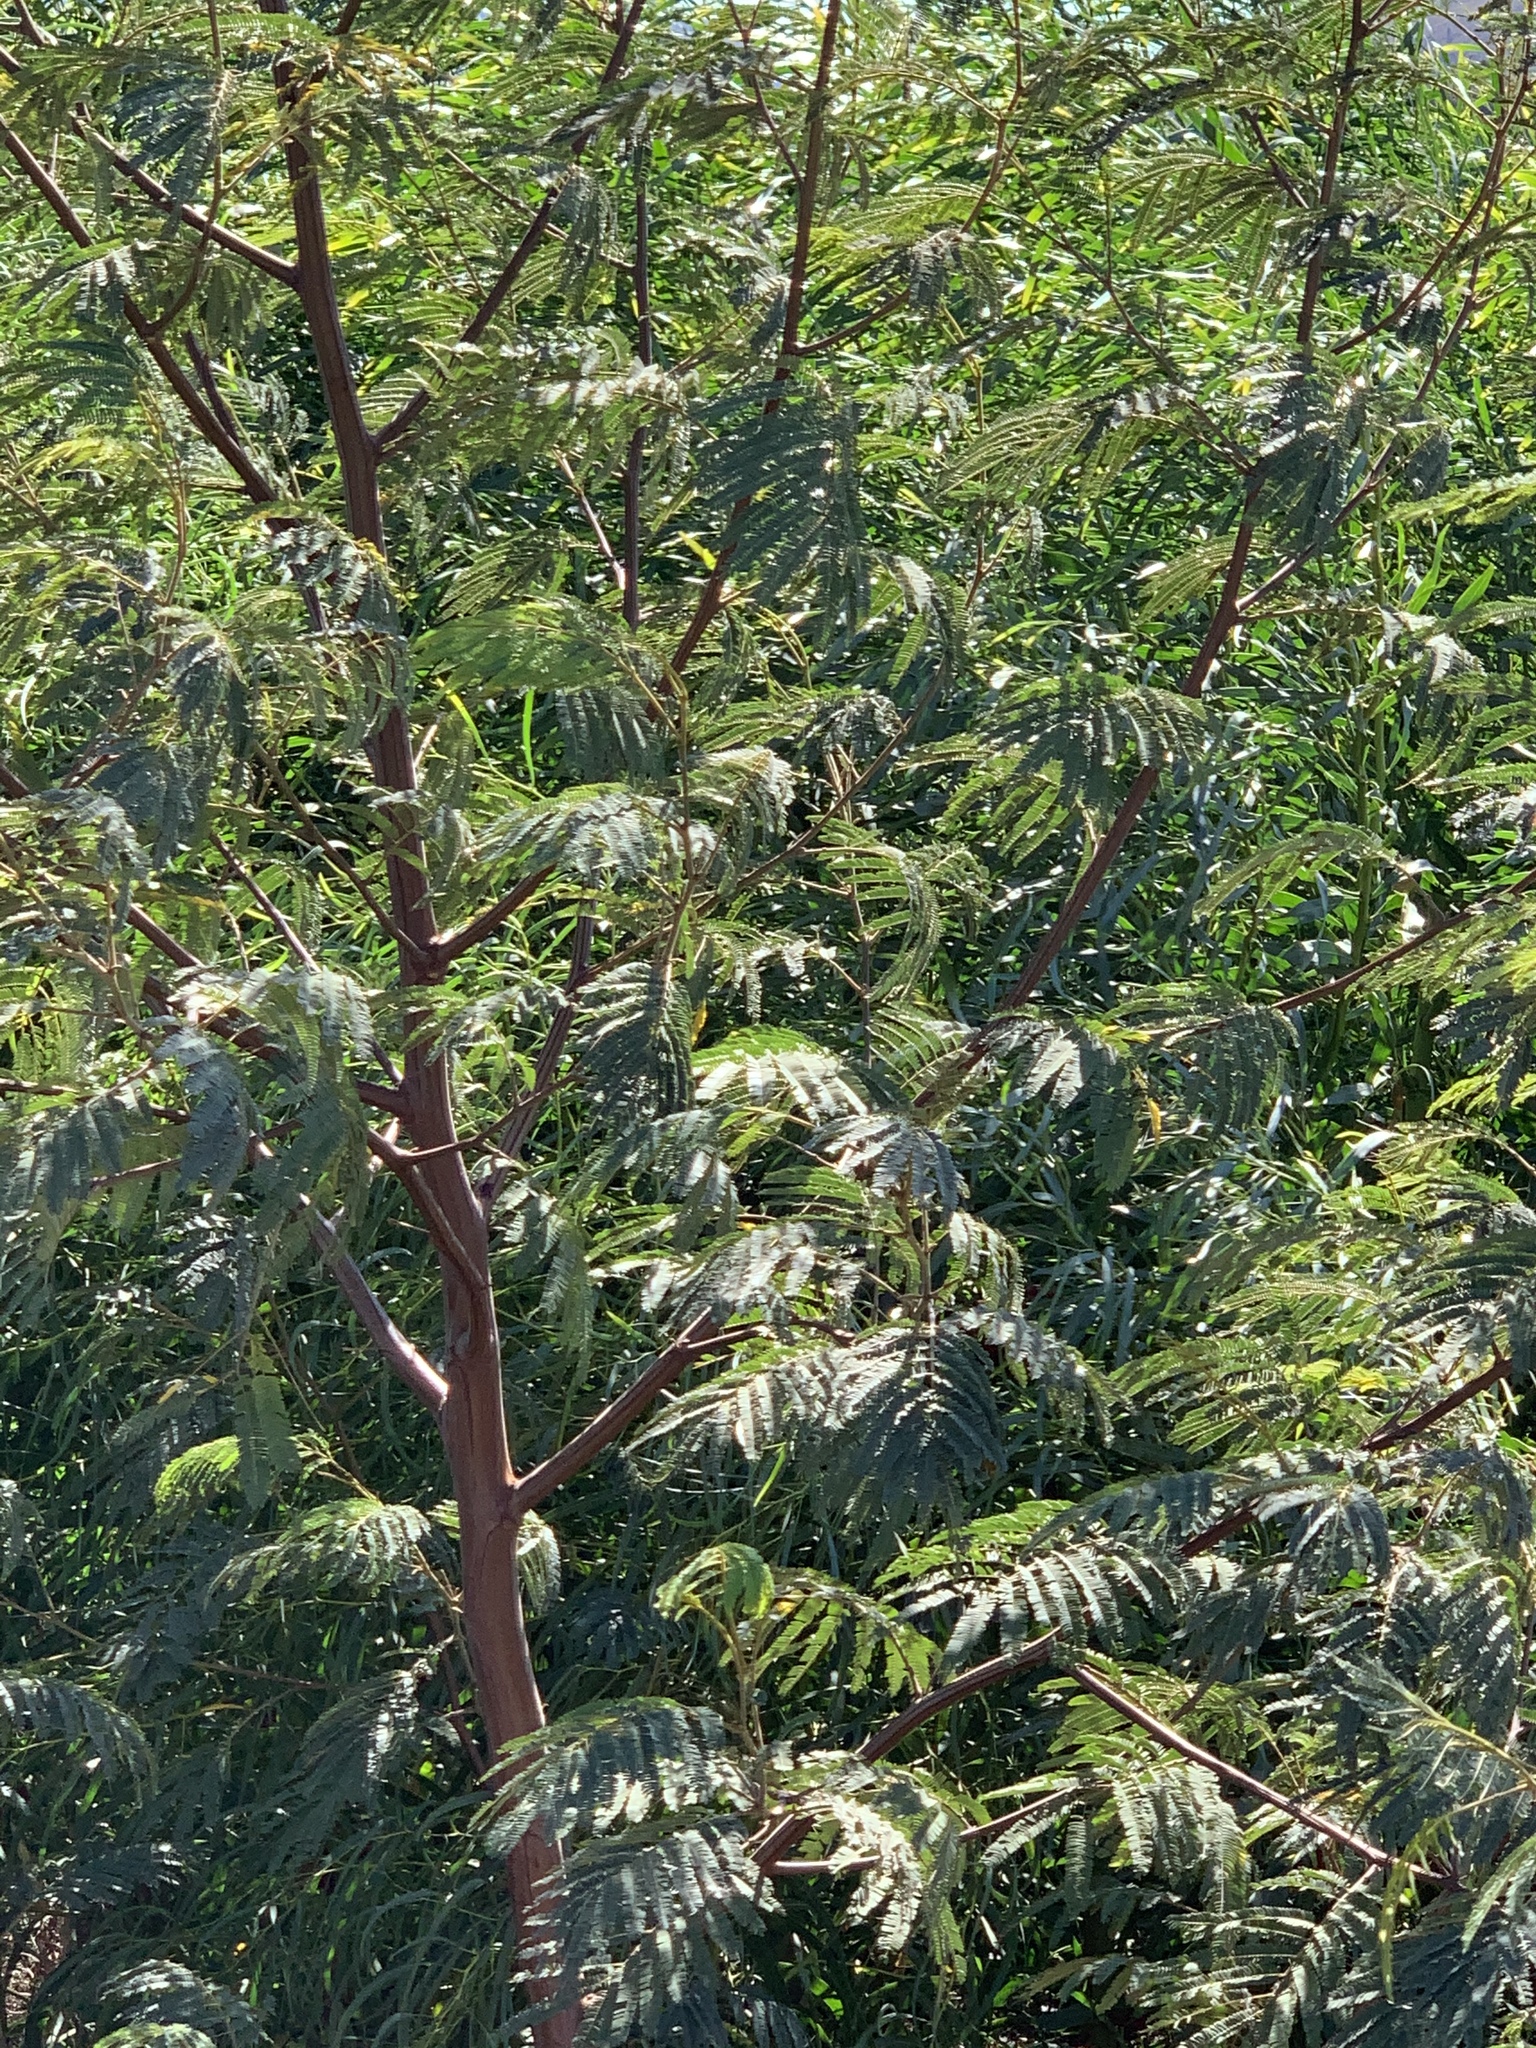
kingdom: Plantae
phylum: Tracheophyta
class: Magnoliopsida
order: Fabales
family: Fabaceae
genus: Paraserianthes
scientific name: Paraserianthes lophantha
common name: Plume albizia
